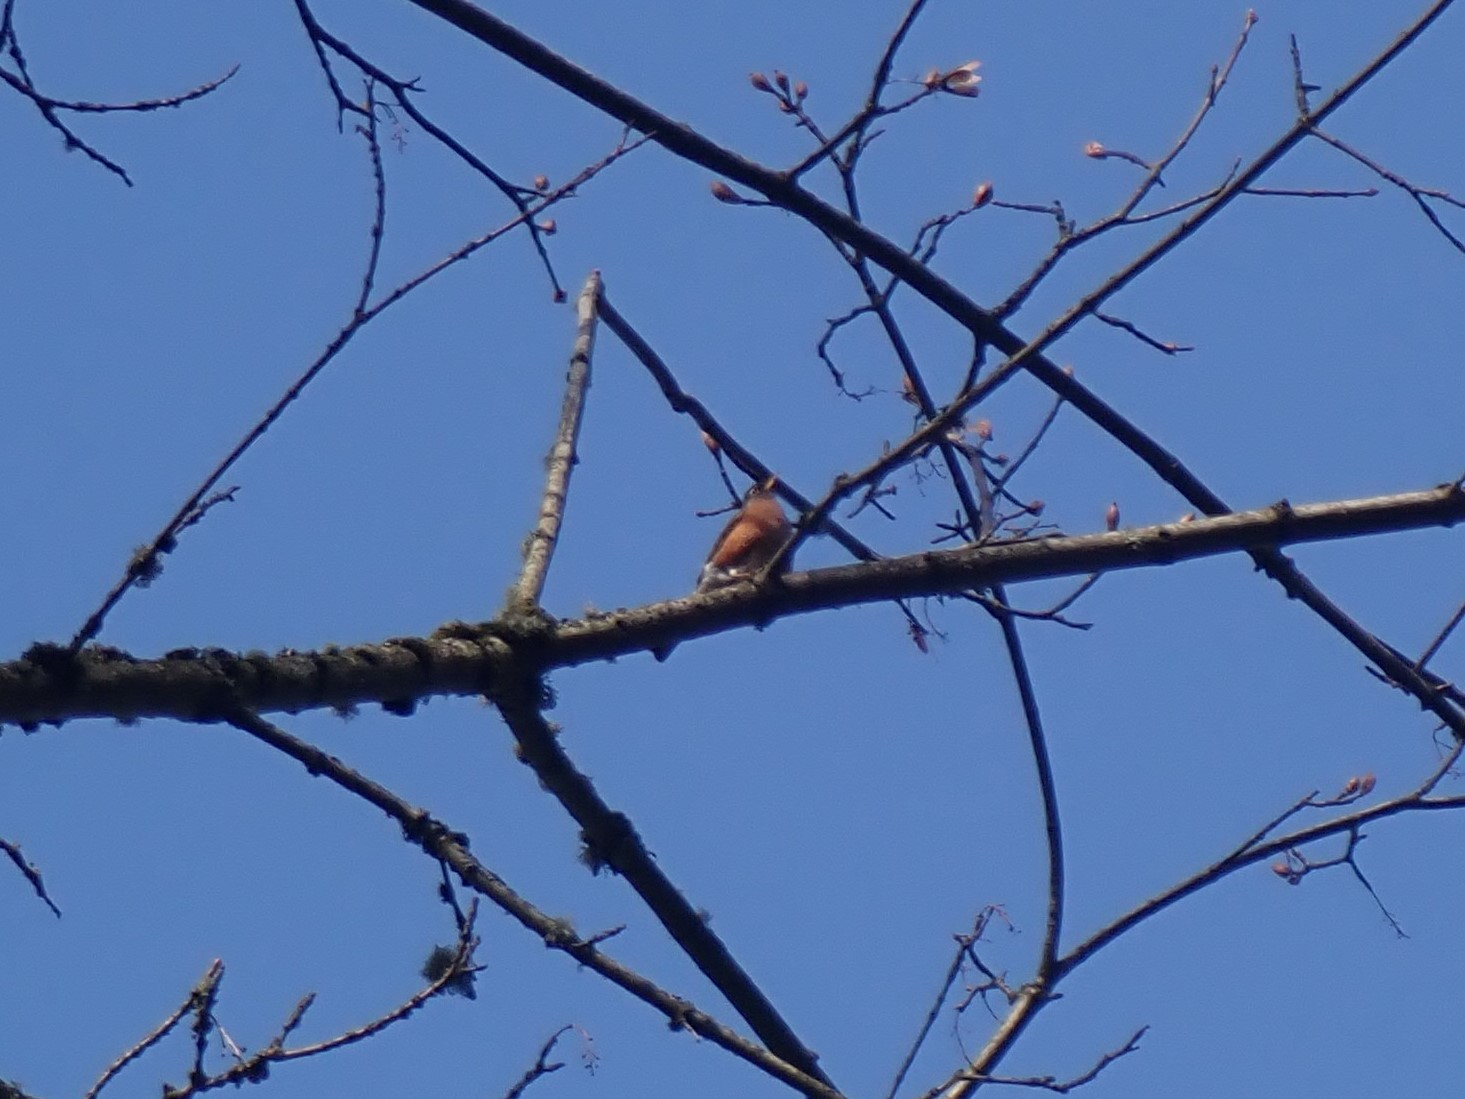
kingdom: Animalia
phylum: Chordata
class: Aves
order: Passeriformes
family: Turdidae
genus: Turdus
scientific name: Turdus migratorius
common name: American robin
